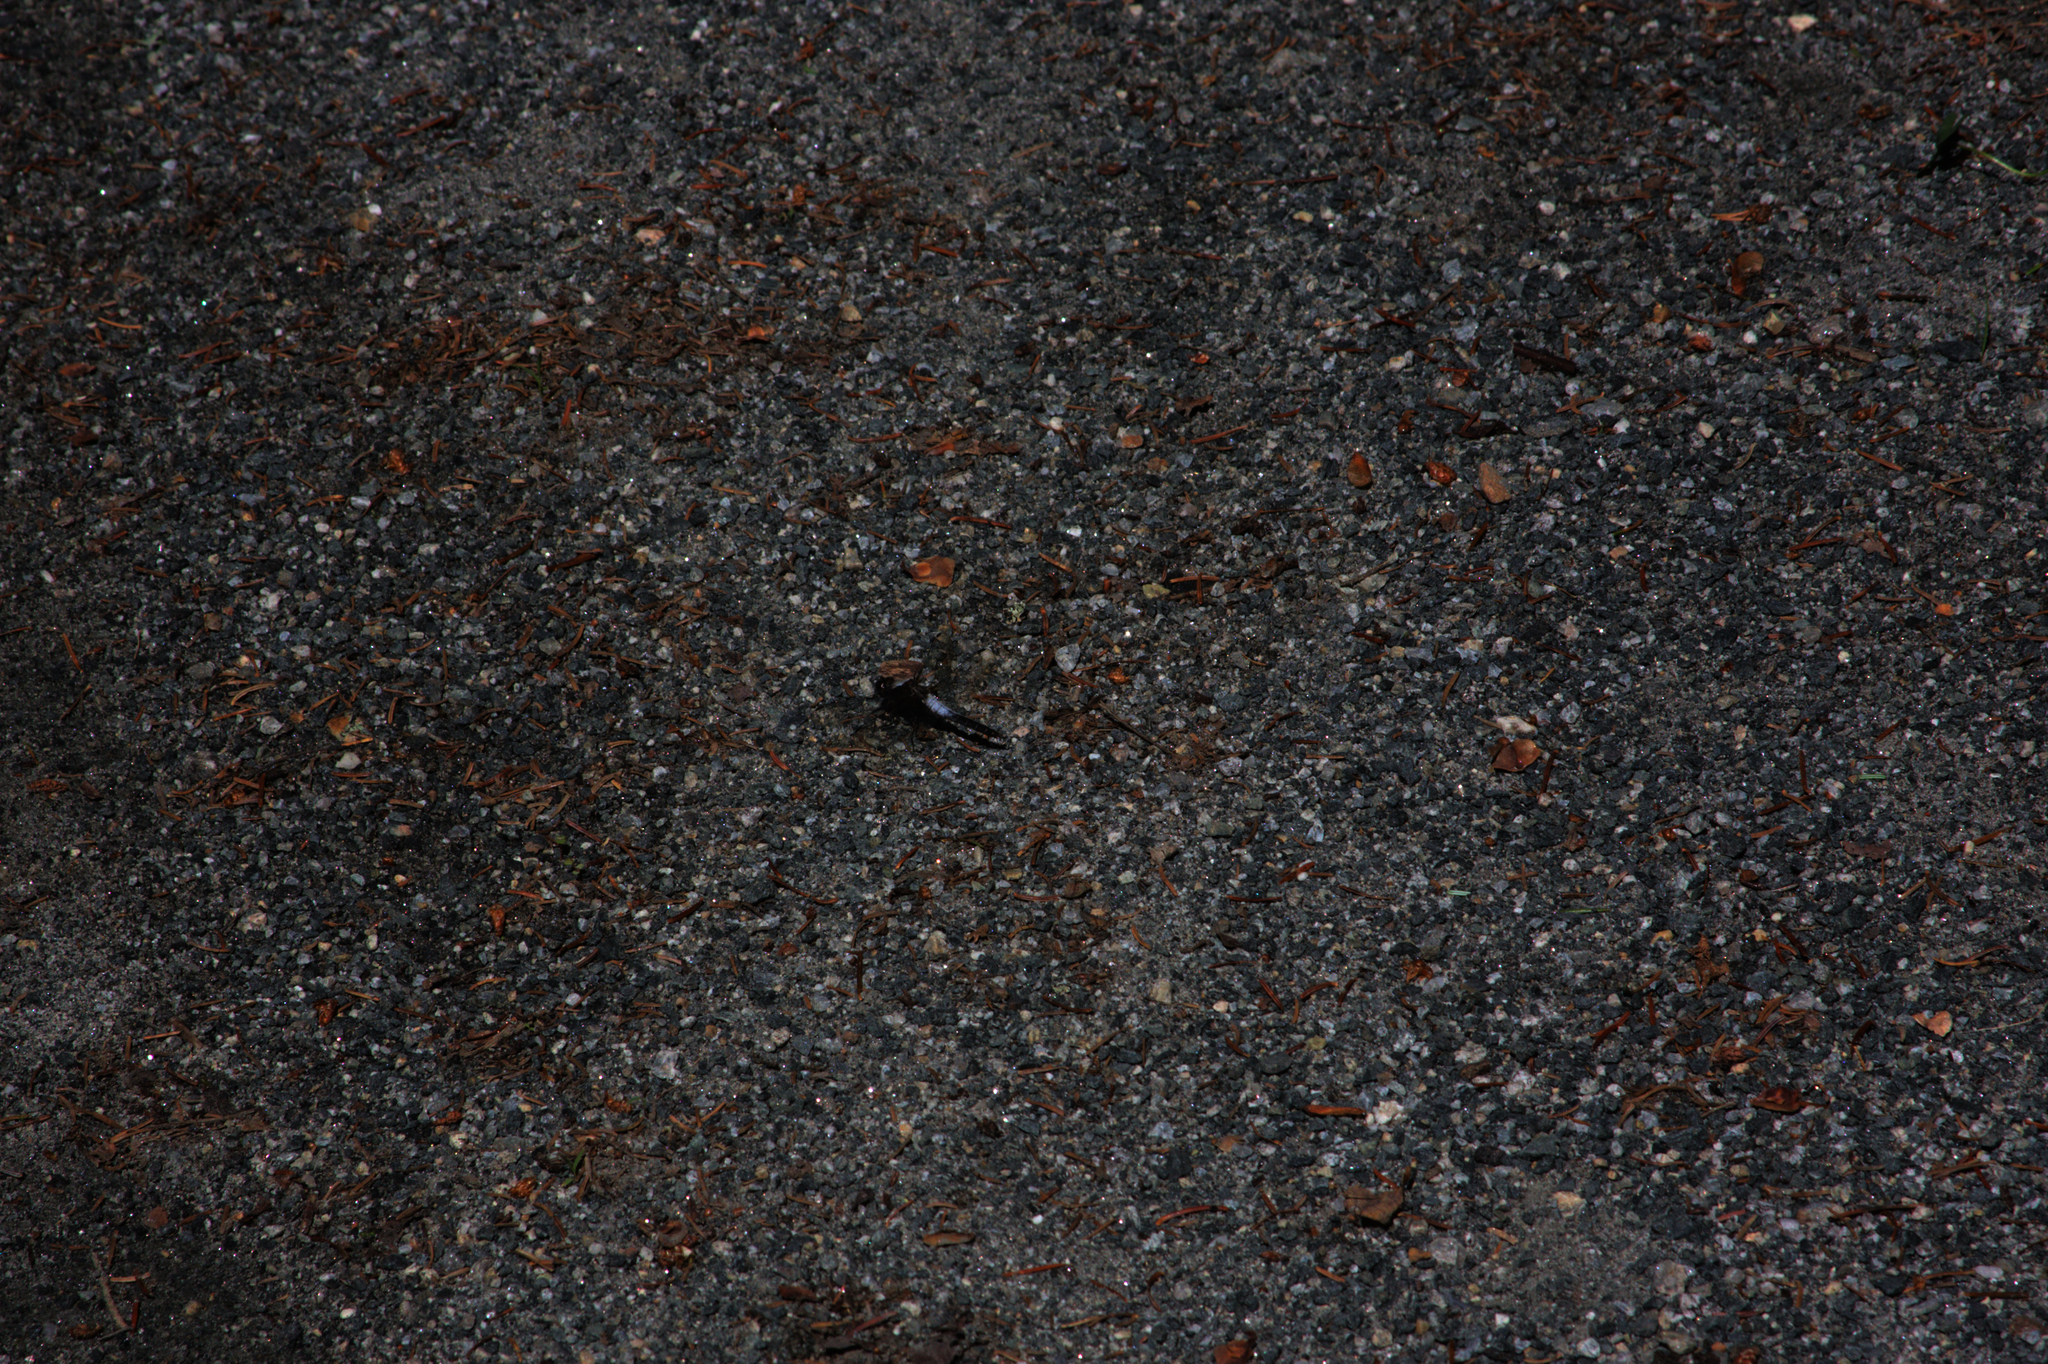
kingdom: Animalia
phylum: Arthropoda
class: Insecta
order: Odonata
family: Libellulidae
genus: Ladona
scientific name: Ladona julia
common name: Chalk-fronted corporal
